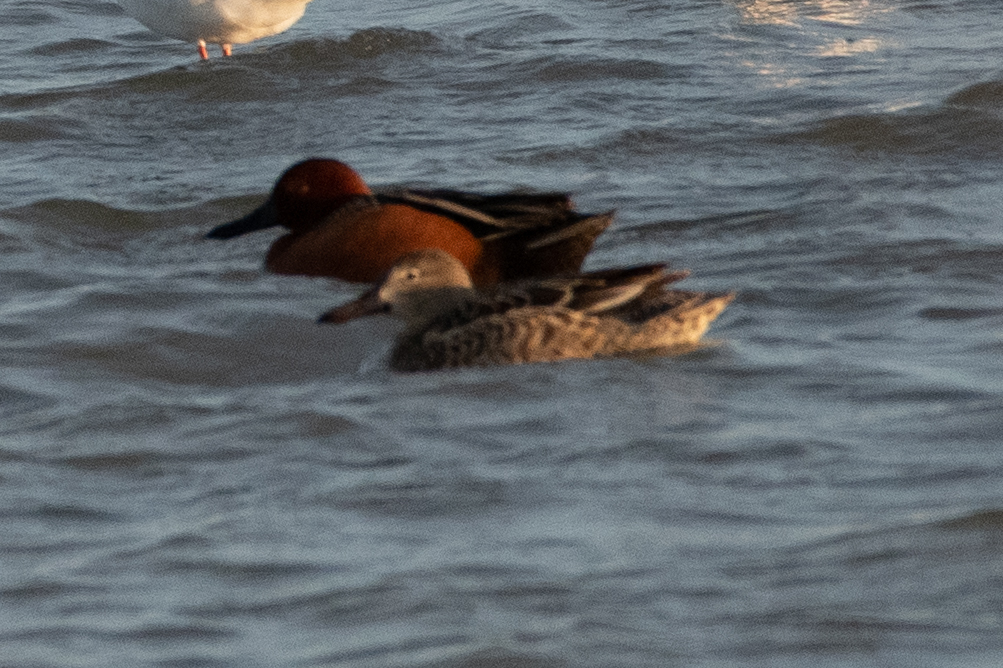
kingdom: Animalia
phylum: Chordata
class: Aves
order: Anseriformes
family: Anatidae
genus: Spatula
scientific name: Spatula cyanoptera
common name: Cinnamon teal
